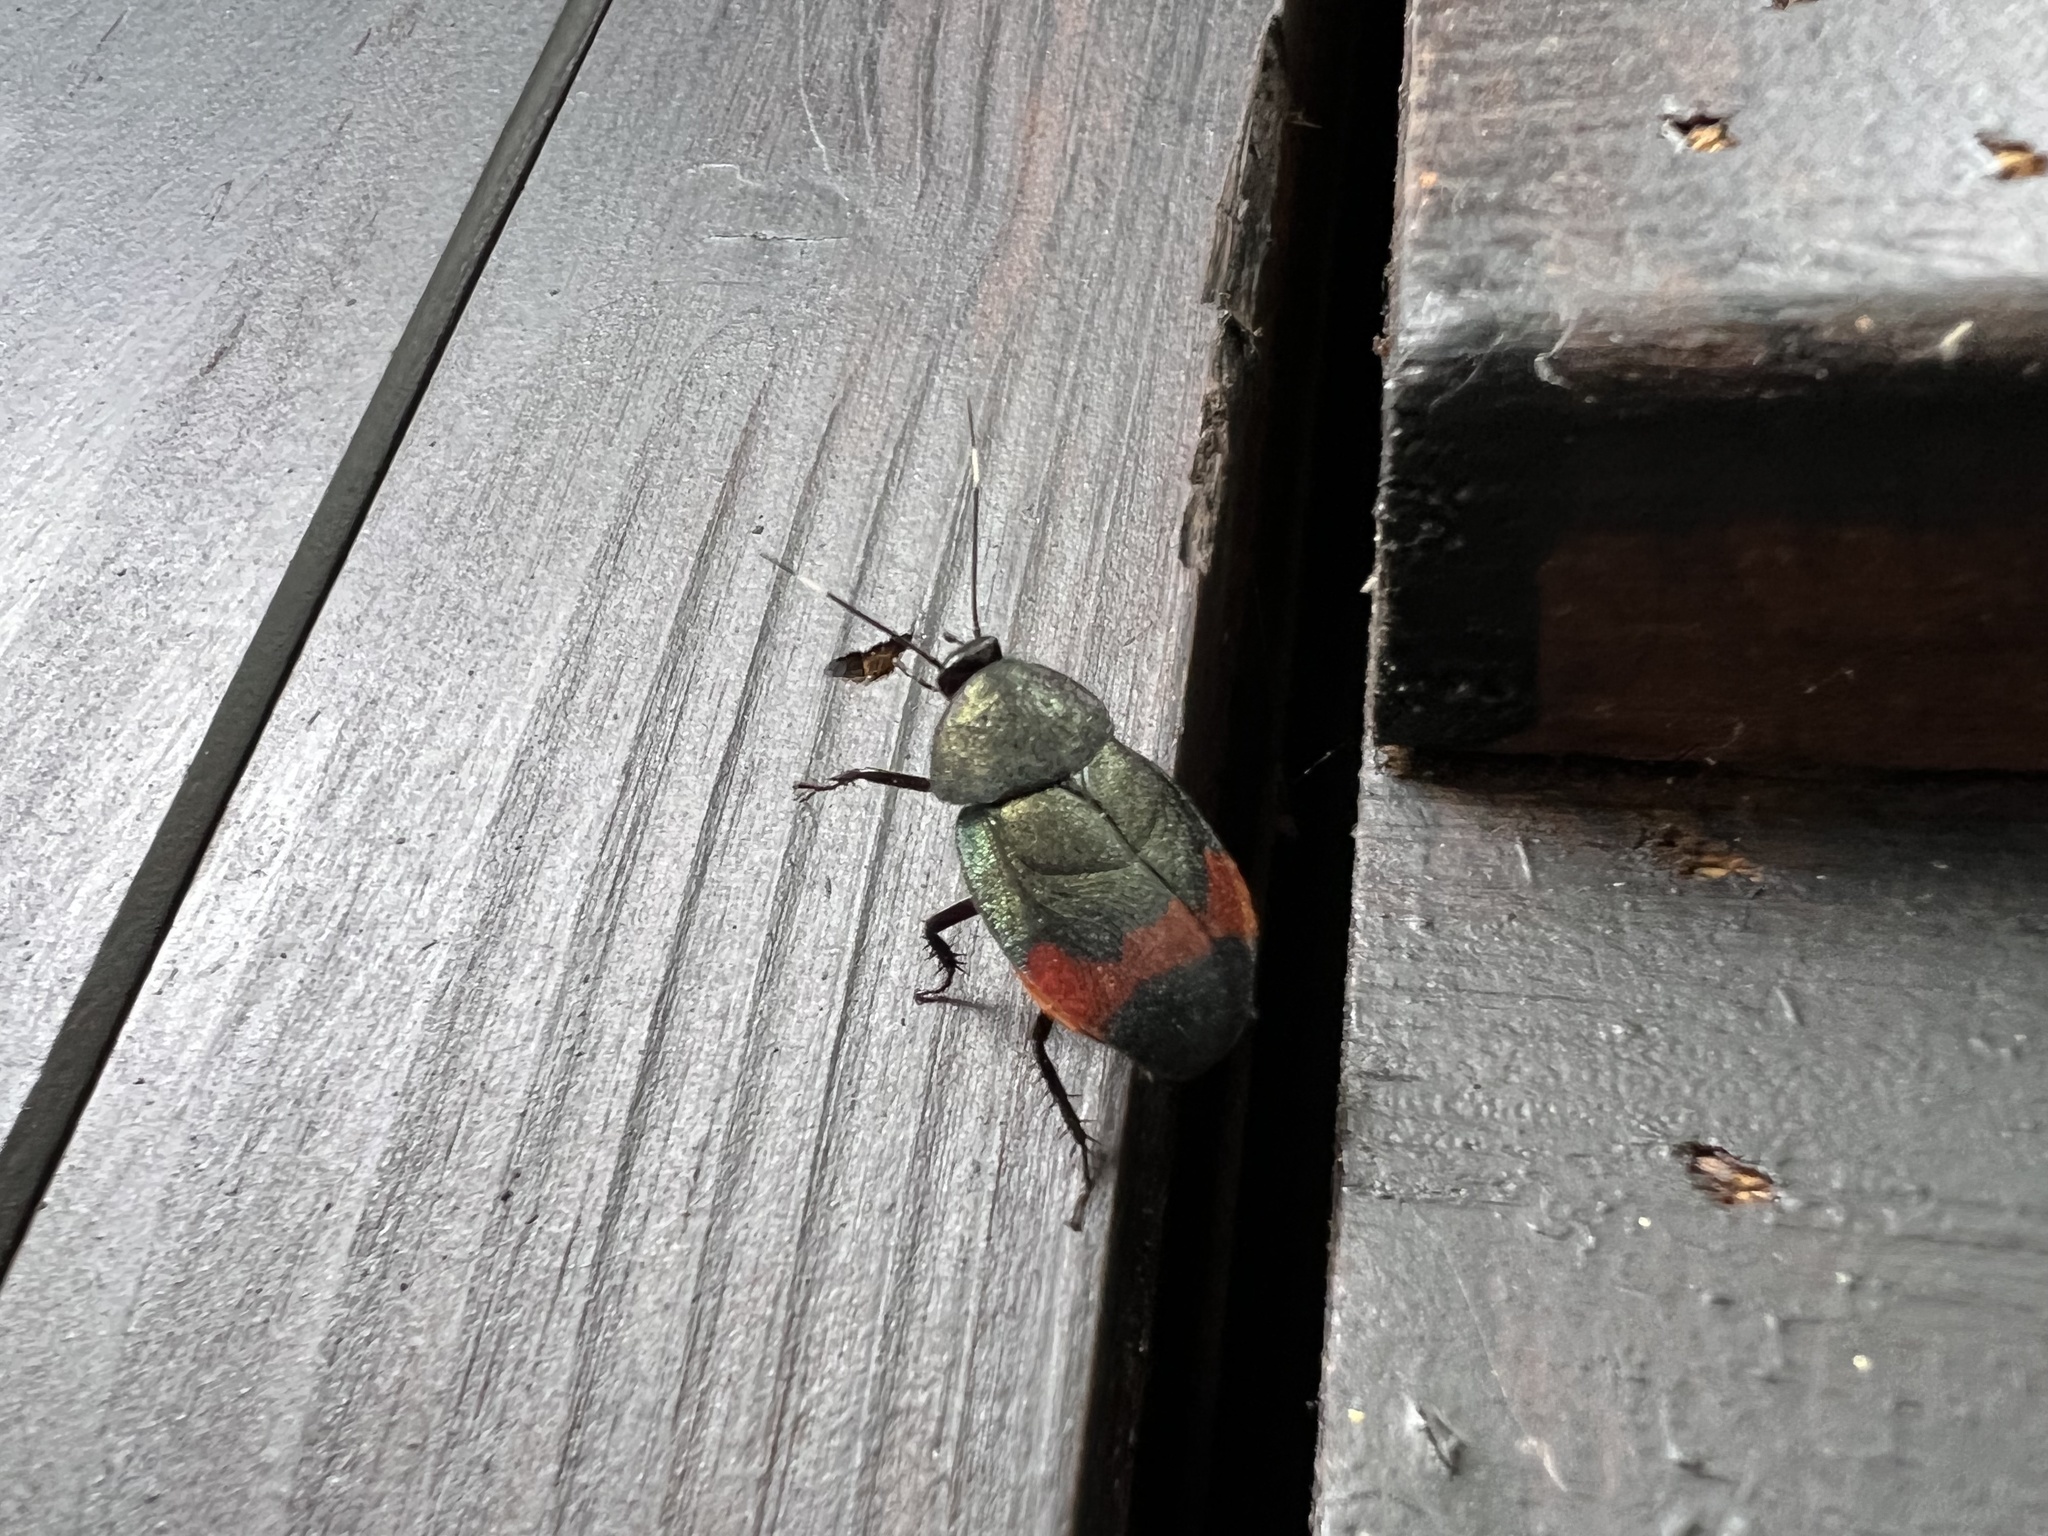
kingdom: Animalia
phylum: Arthropoda
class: Insecta
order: Blattodea
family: Corydiidae
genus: Eucorydia
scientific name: Eucorydia aenea
